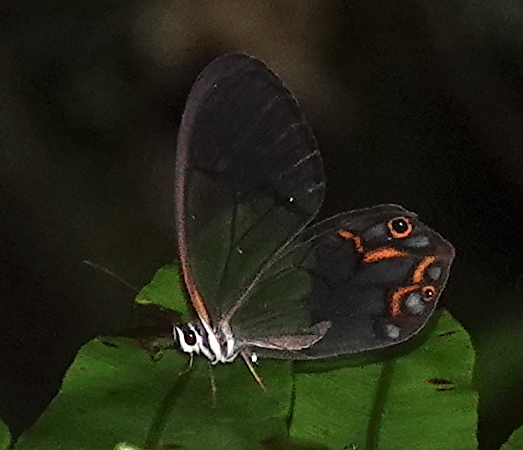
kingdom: Animalia
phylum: Arthropoda
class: Insecta
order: Lepidoptera
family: Nymphalidae
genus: Pseudohaetera
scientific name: Pseudohaetera hypaesia
